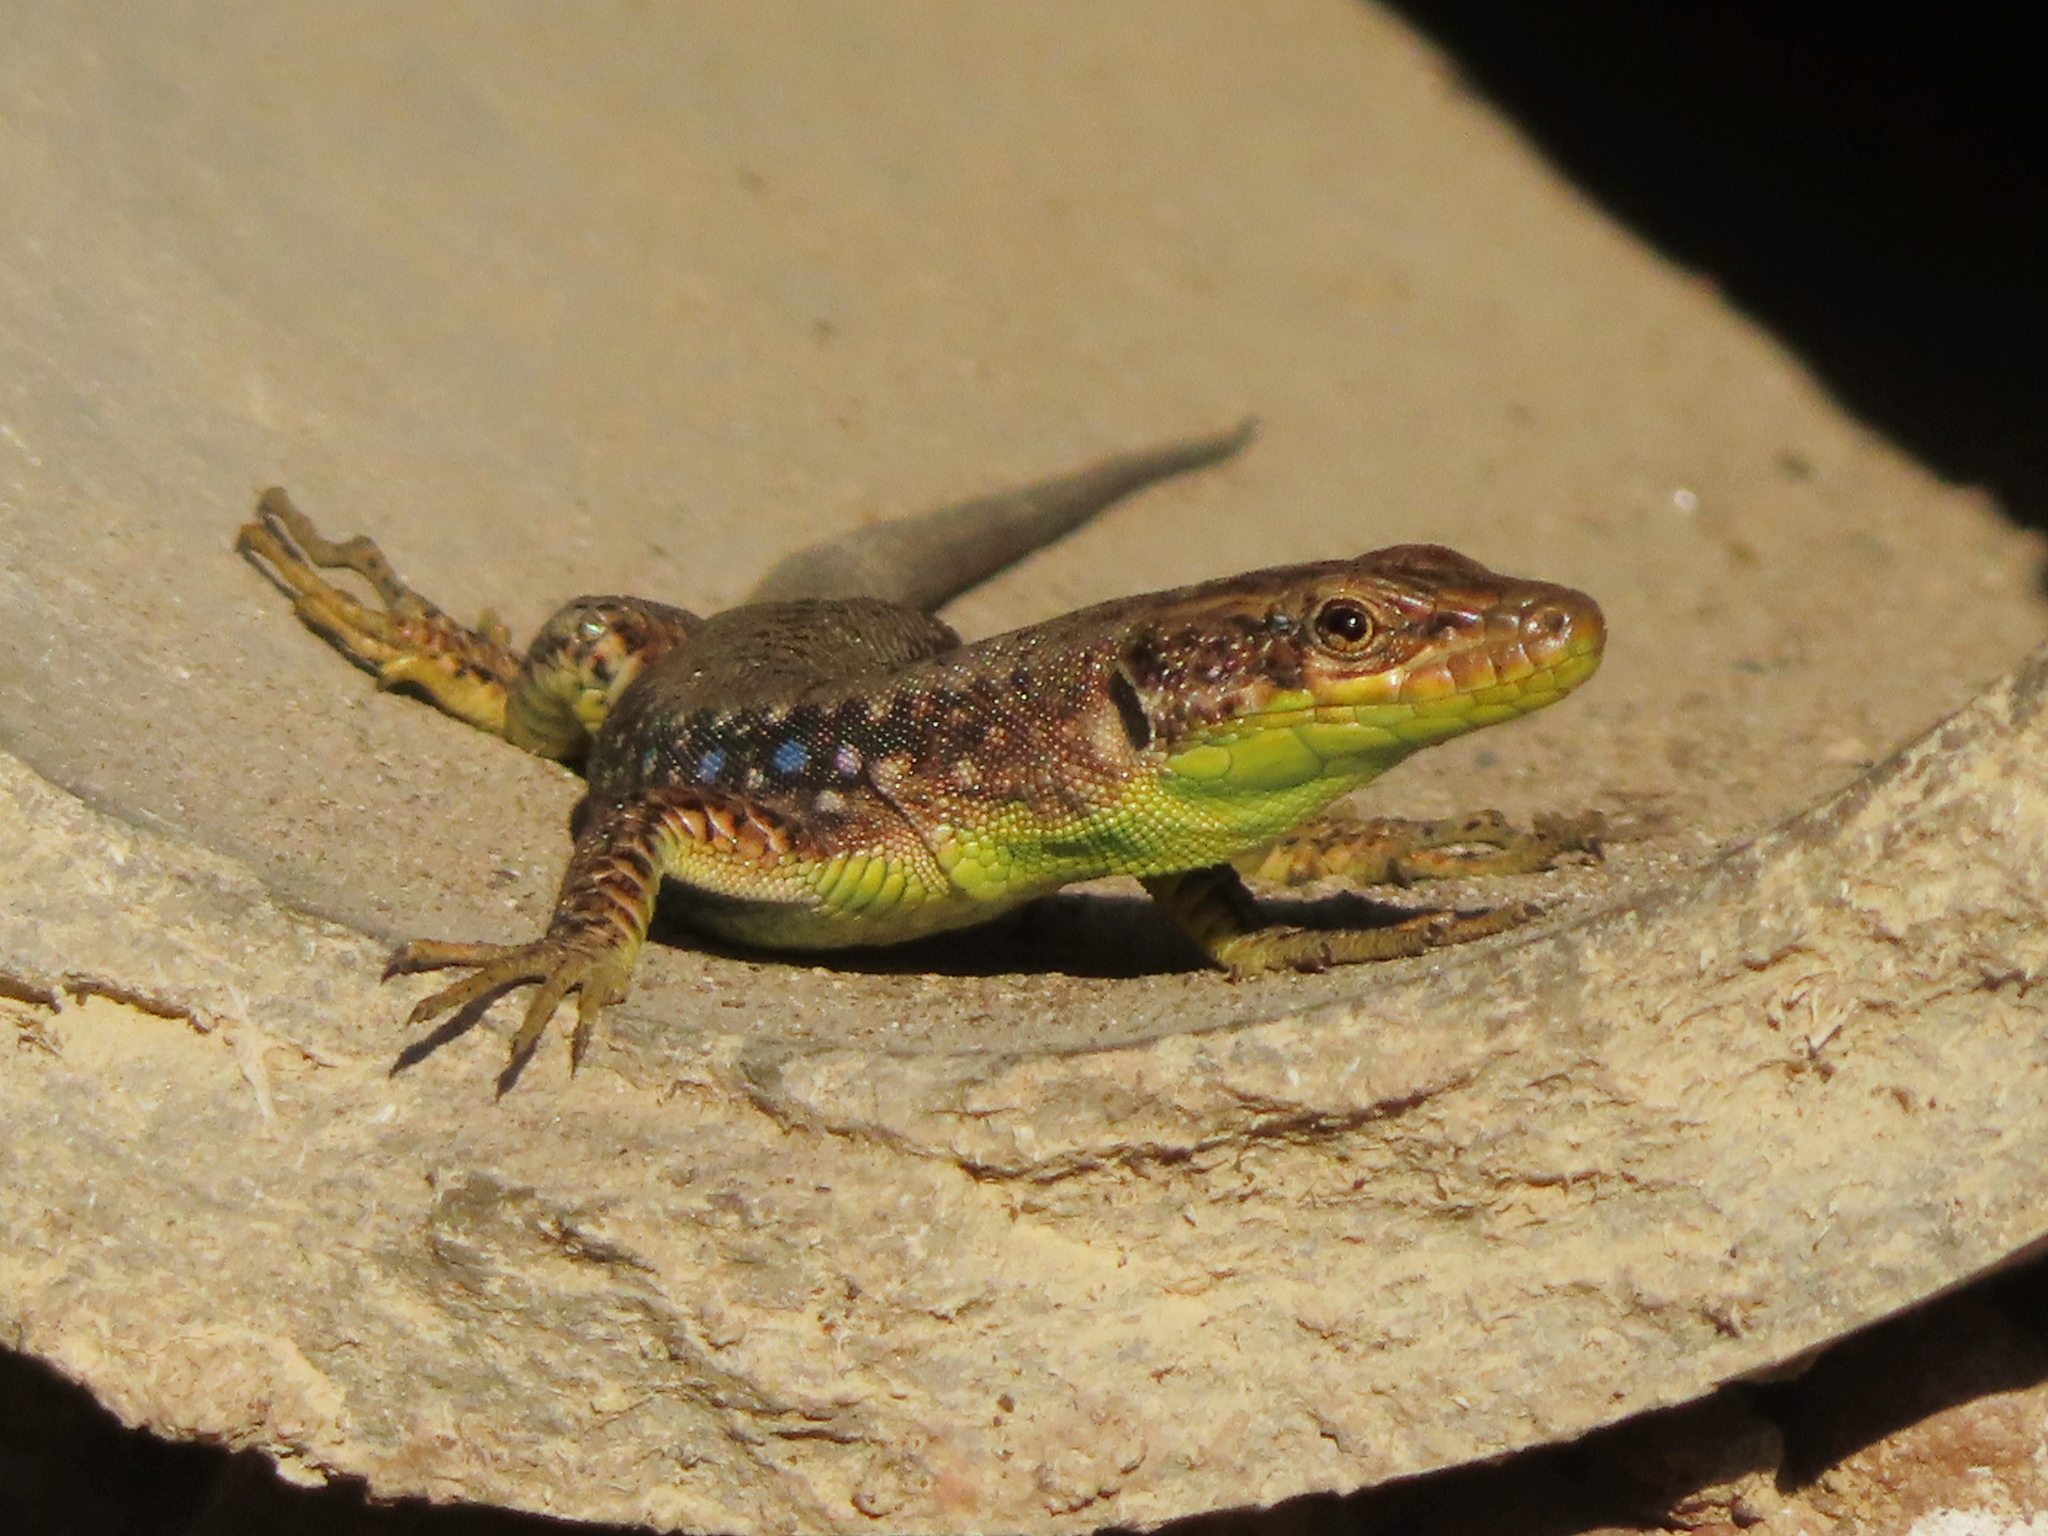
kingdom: Animalia
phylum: Chordata
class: Squamata
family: Lacertidae
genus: Darevskia
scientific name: Darevskia raddei
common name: Radde's lizard
